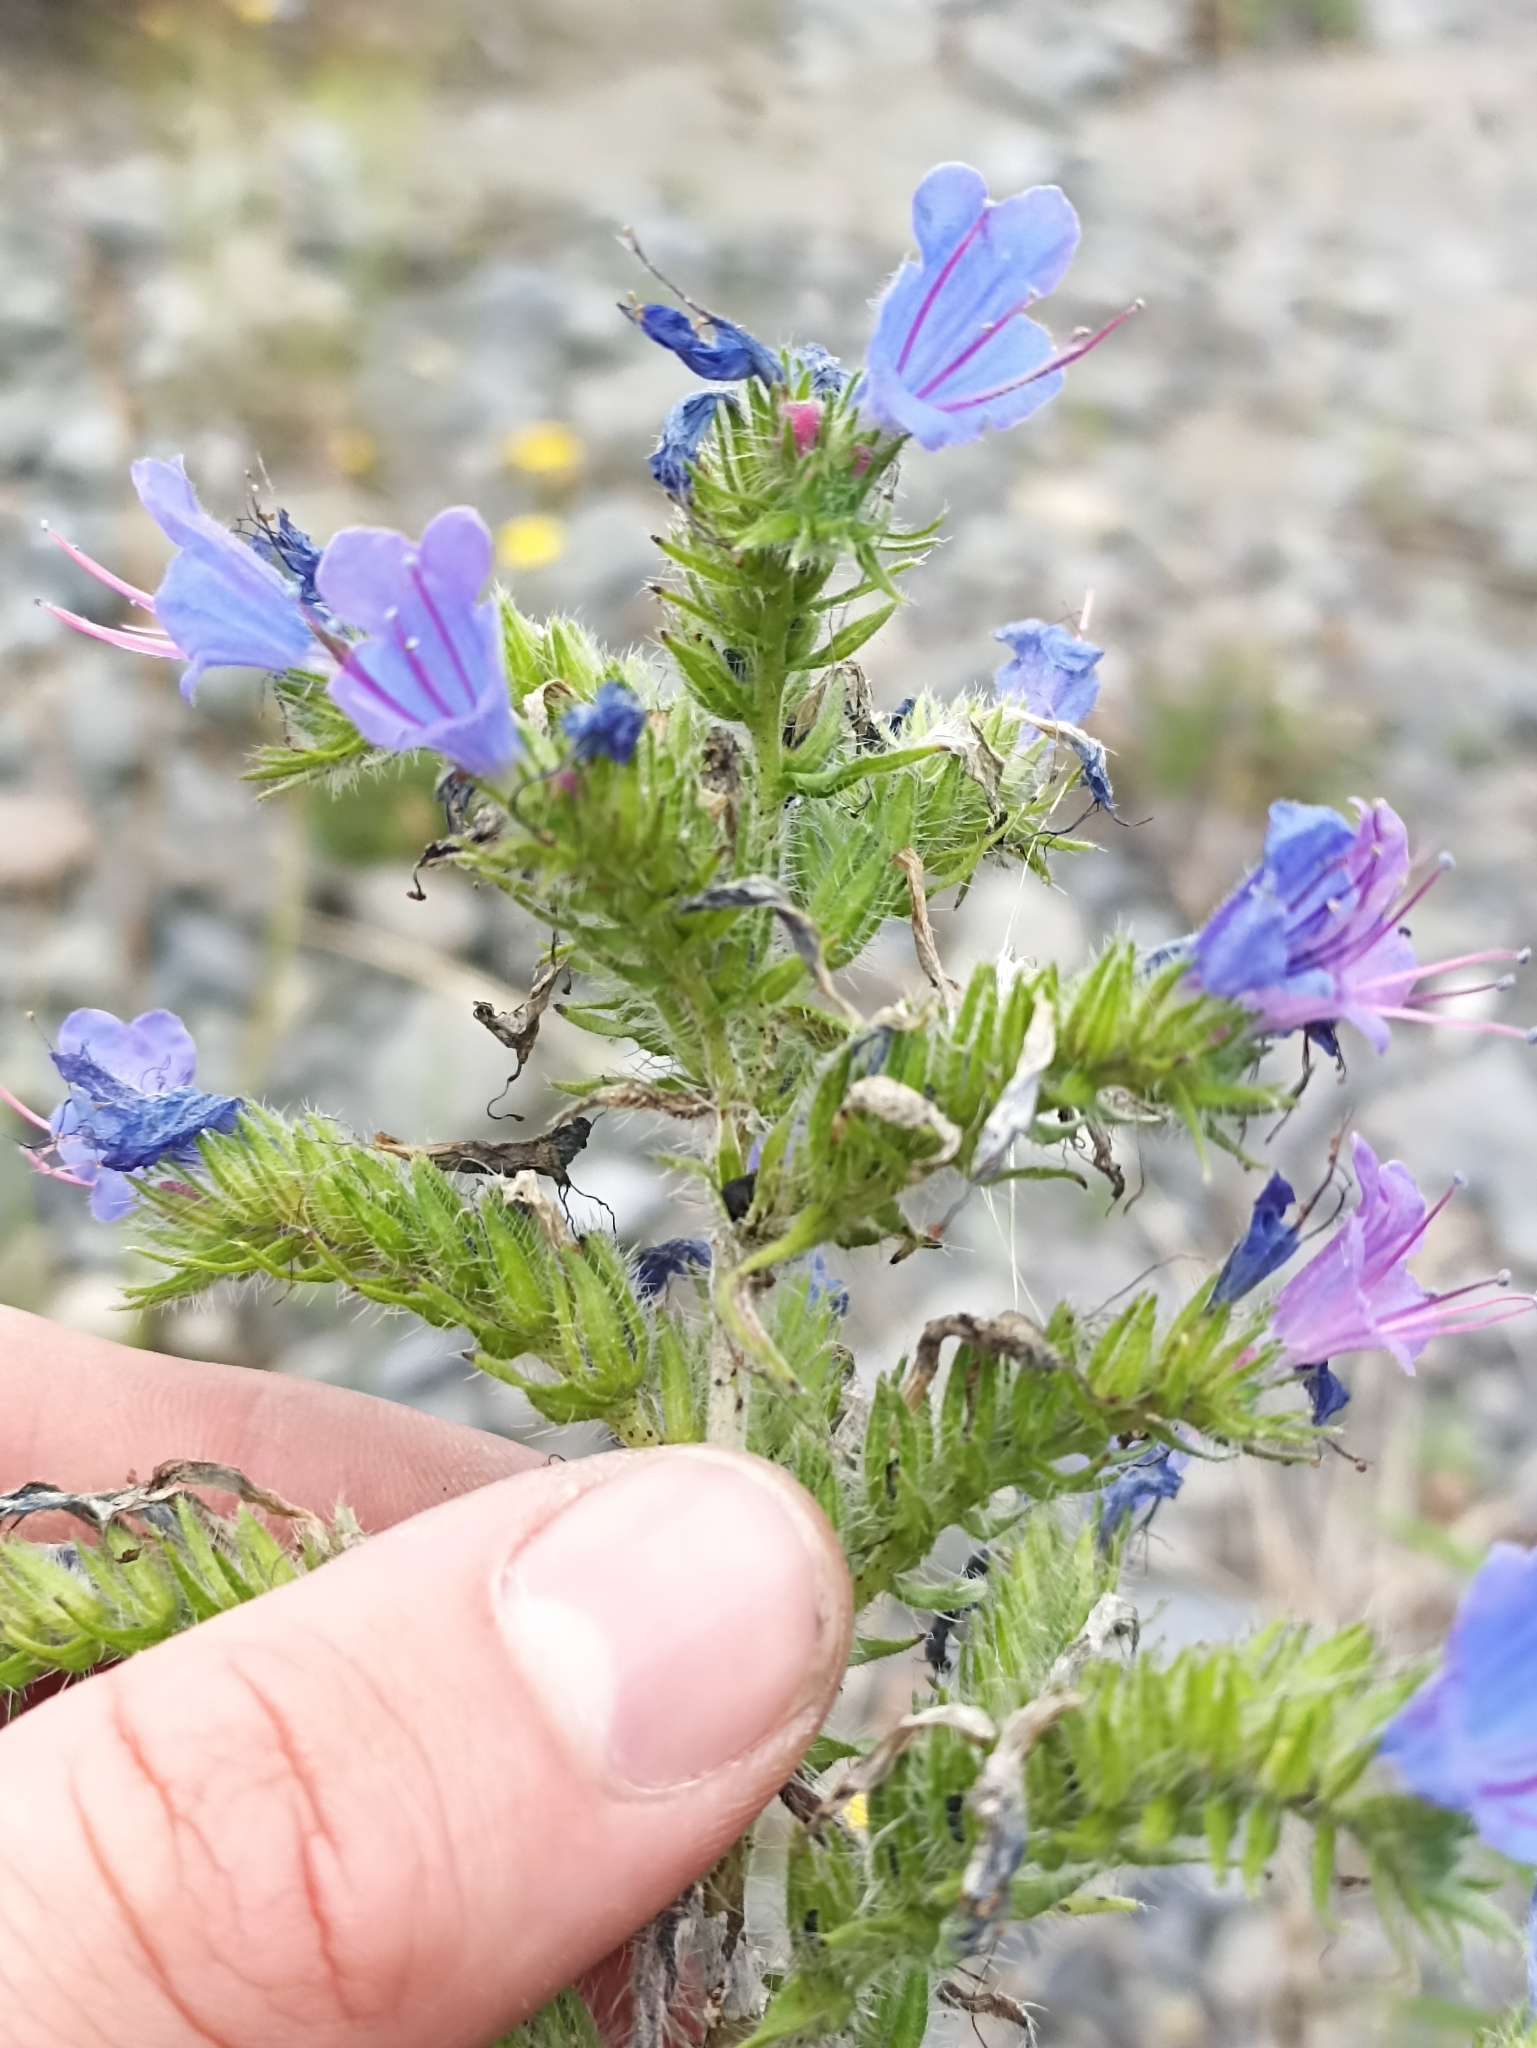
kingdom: Plantae
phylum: Tracheophyta
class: Magnoliopsida
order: Boraginales
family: Boraginaceae
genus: Echium
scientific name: Echium vulgare
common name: Common viper's bugloss
